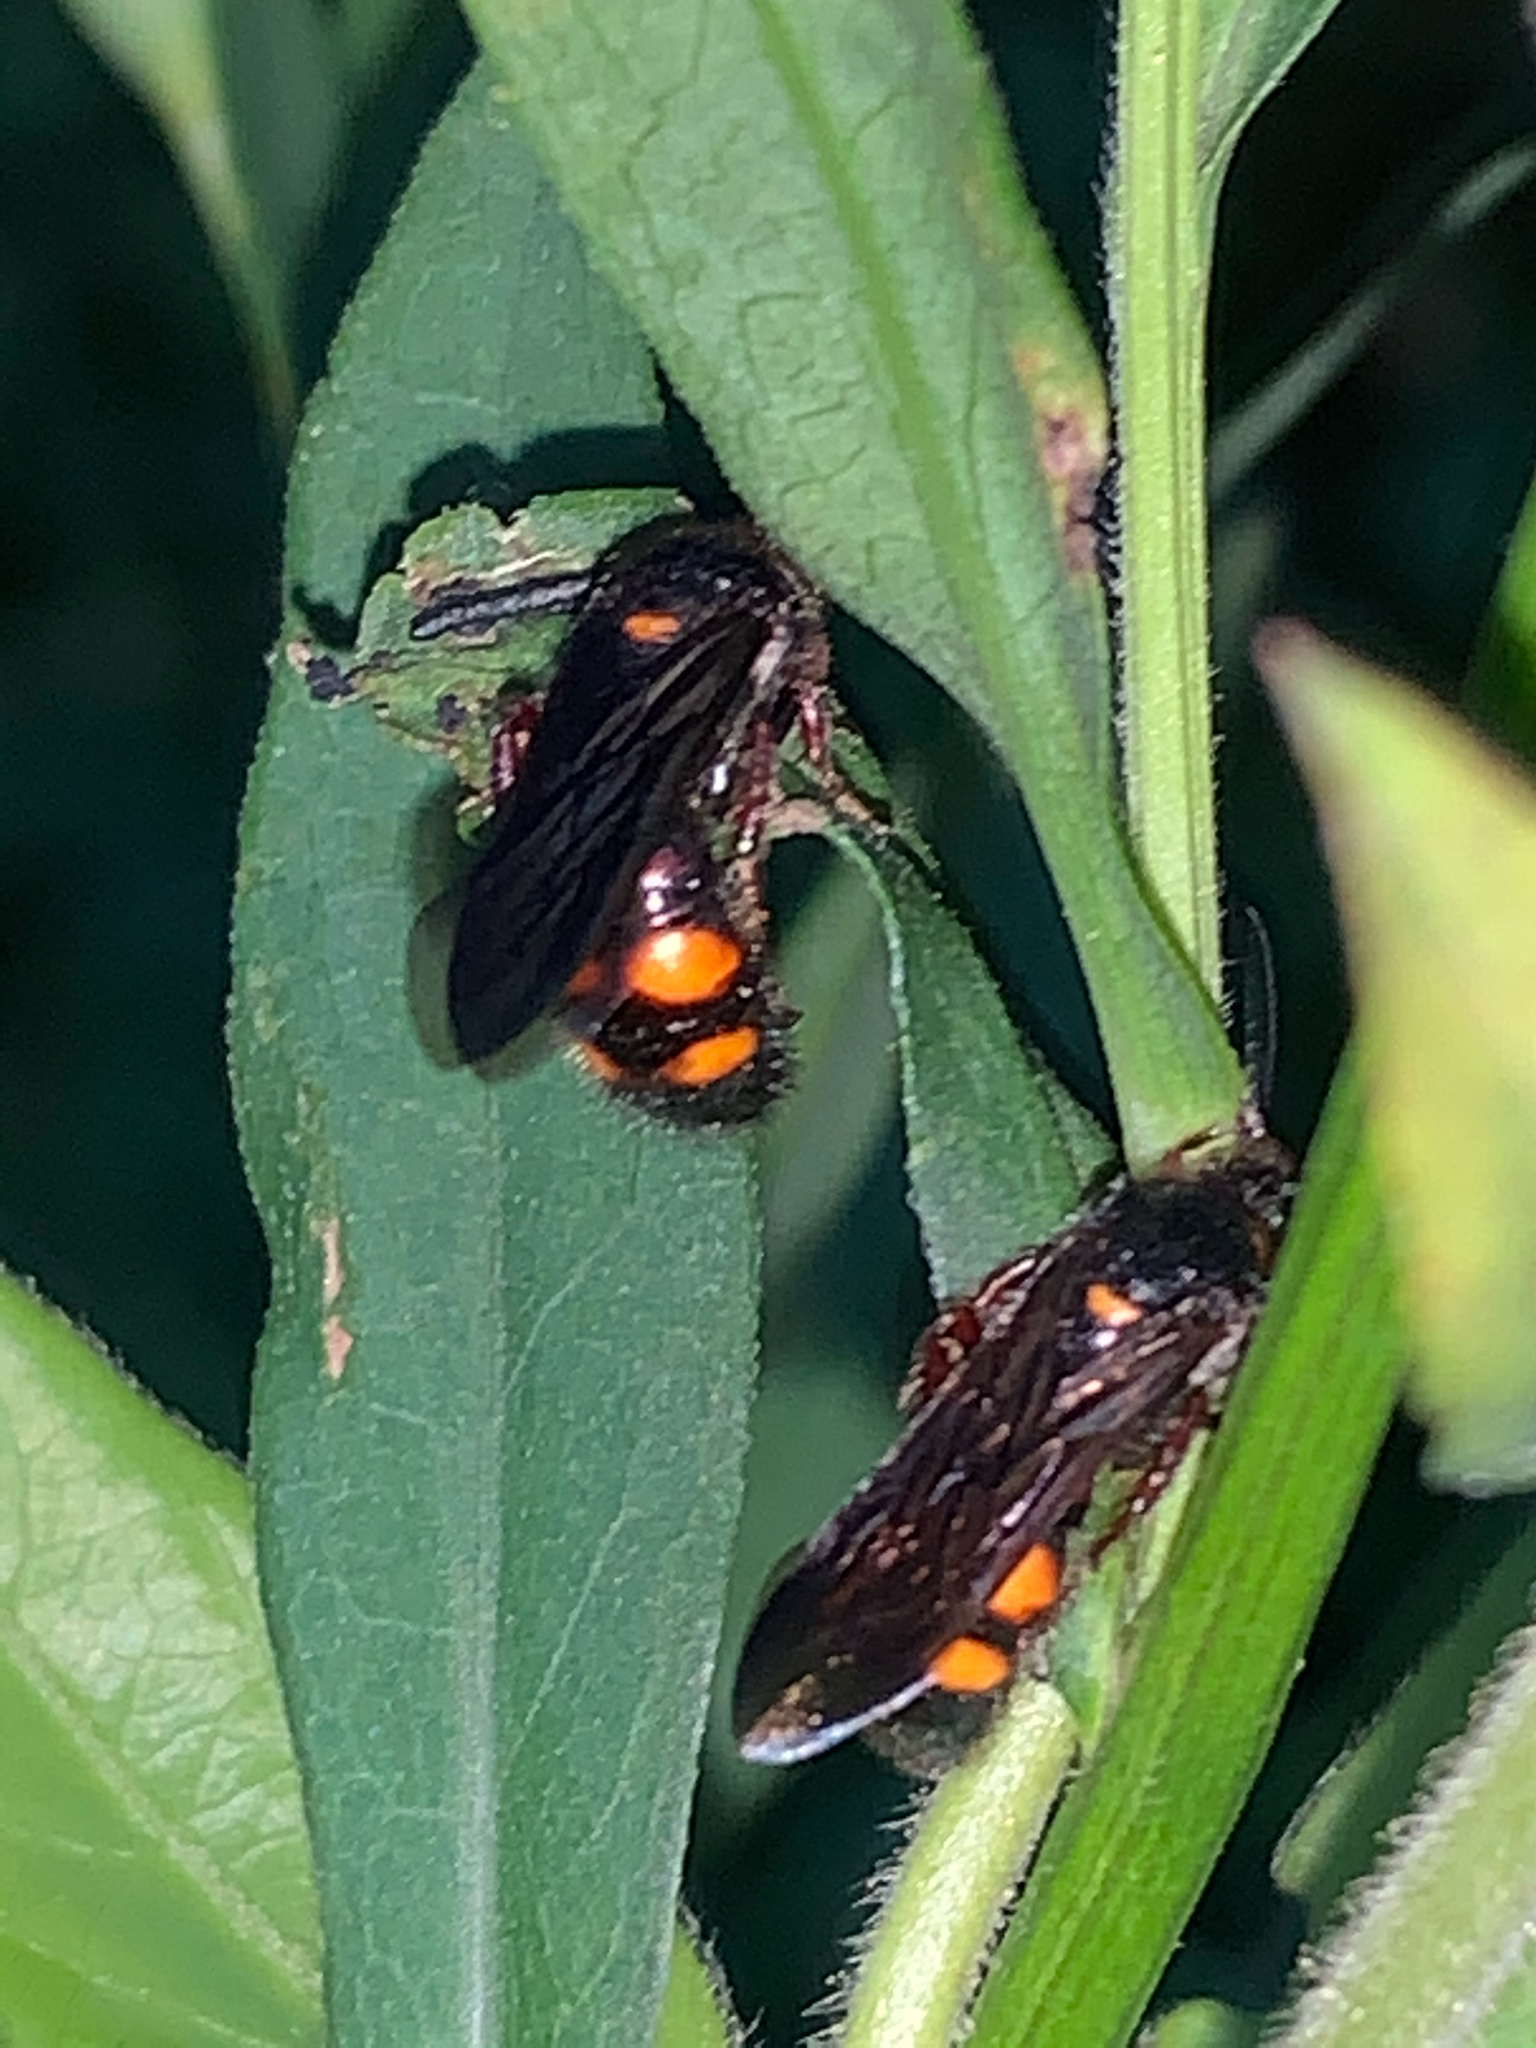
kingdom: Animalia
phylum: Arthropoda
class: Insecta
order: Hymenoptera
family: Scoliidae
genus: Scolia
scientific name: Scolia nobilitata
